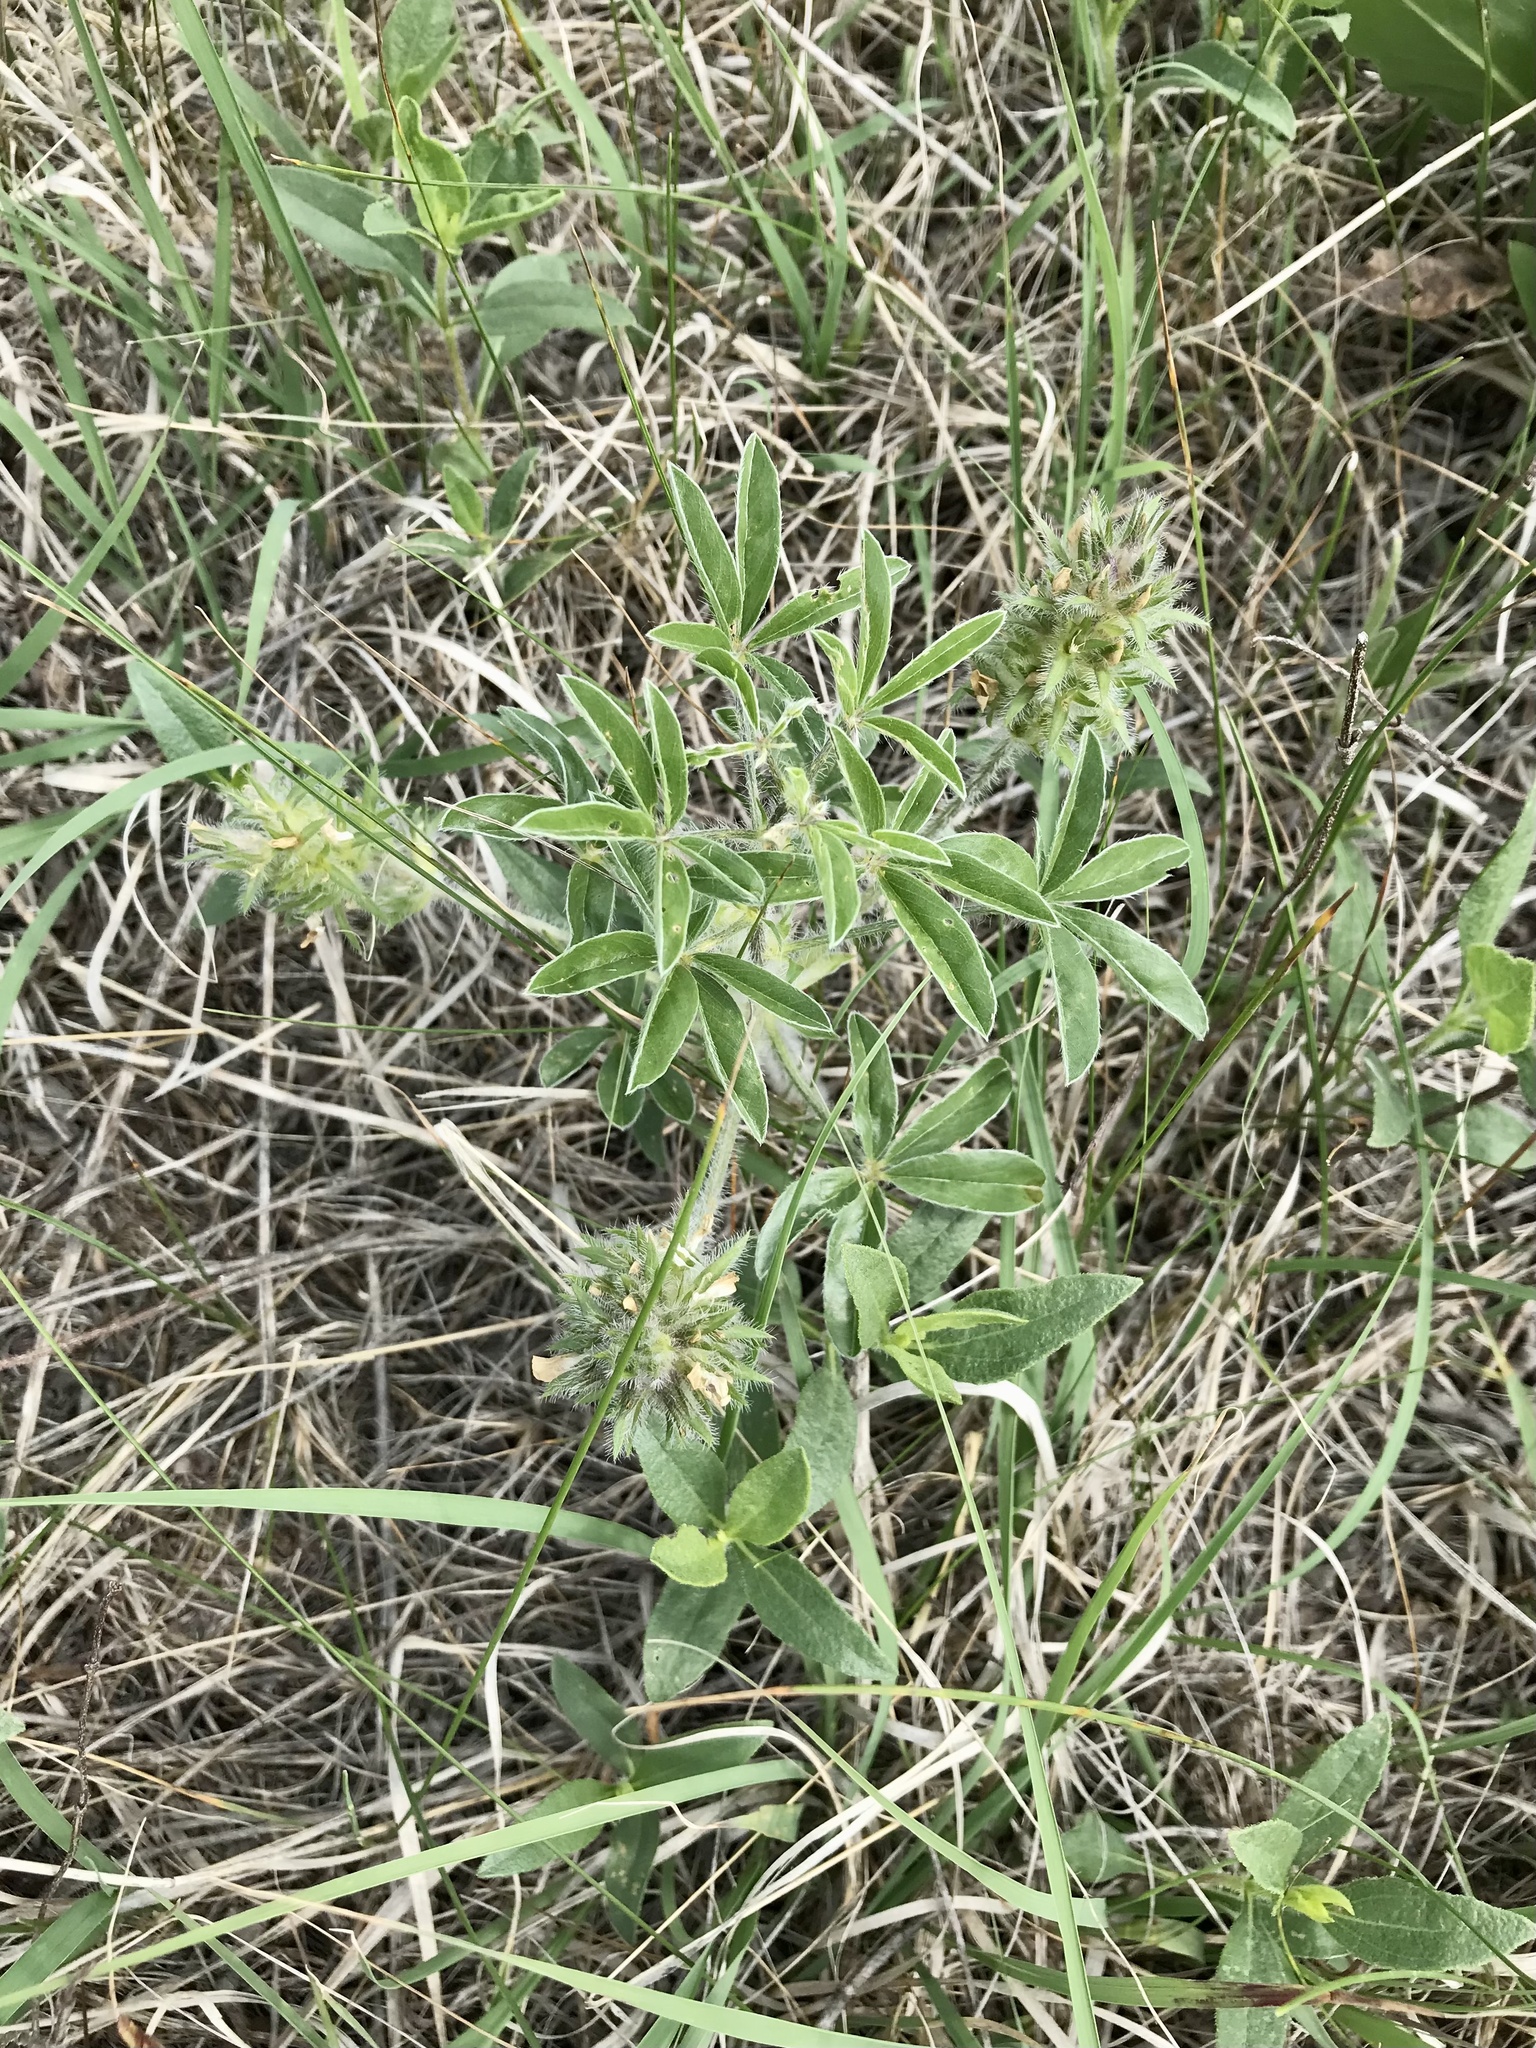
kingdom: Plantae
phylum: Tracheophyta
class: Magnoliopsida
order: Fabales
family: Fabaceae
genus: Pediomelum
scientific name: Pediomelum esculentum
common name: Indian-turnip
